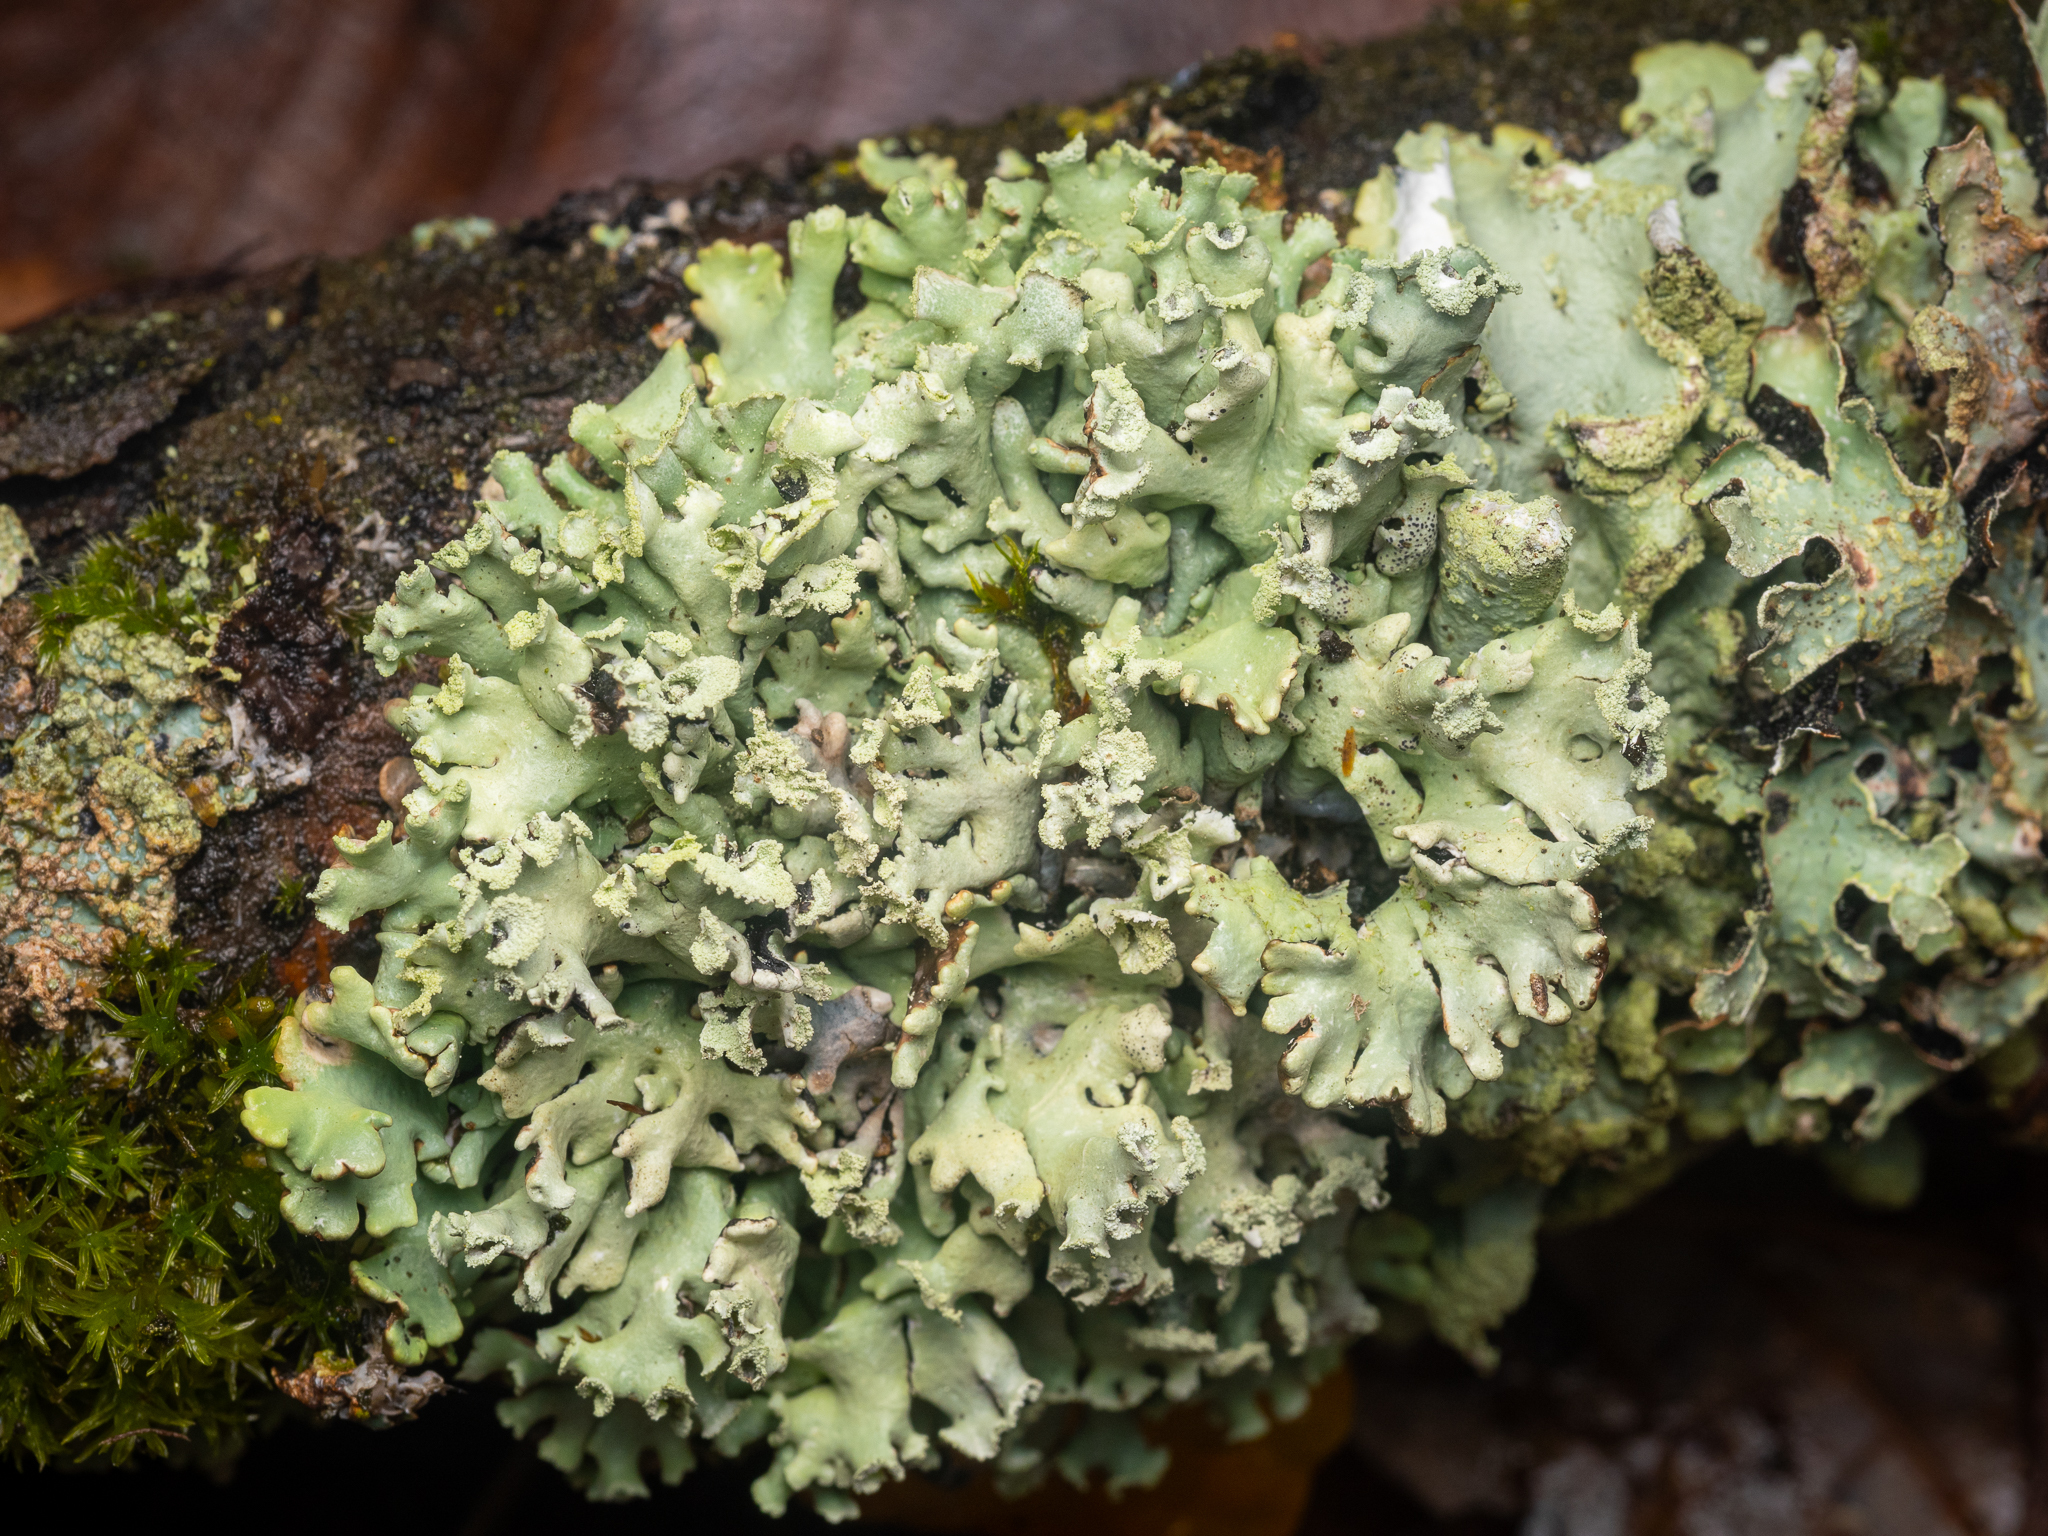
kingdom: Fungi
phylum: Ascomycota
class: Lecanoromycetes
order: Lecanorales
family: Parmeliaceae
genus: Hypogymnia
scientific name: Hypogymnia physodes
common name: Dark crottle
